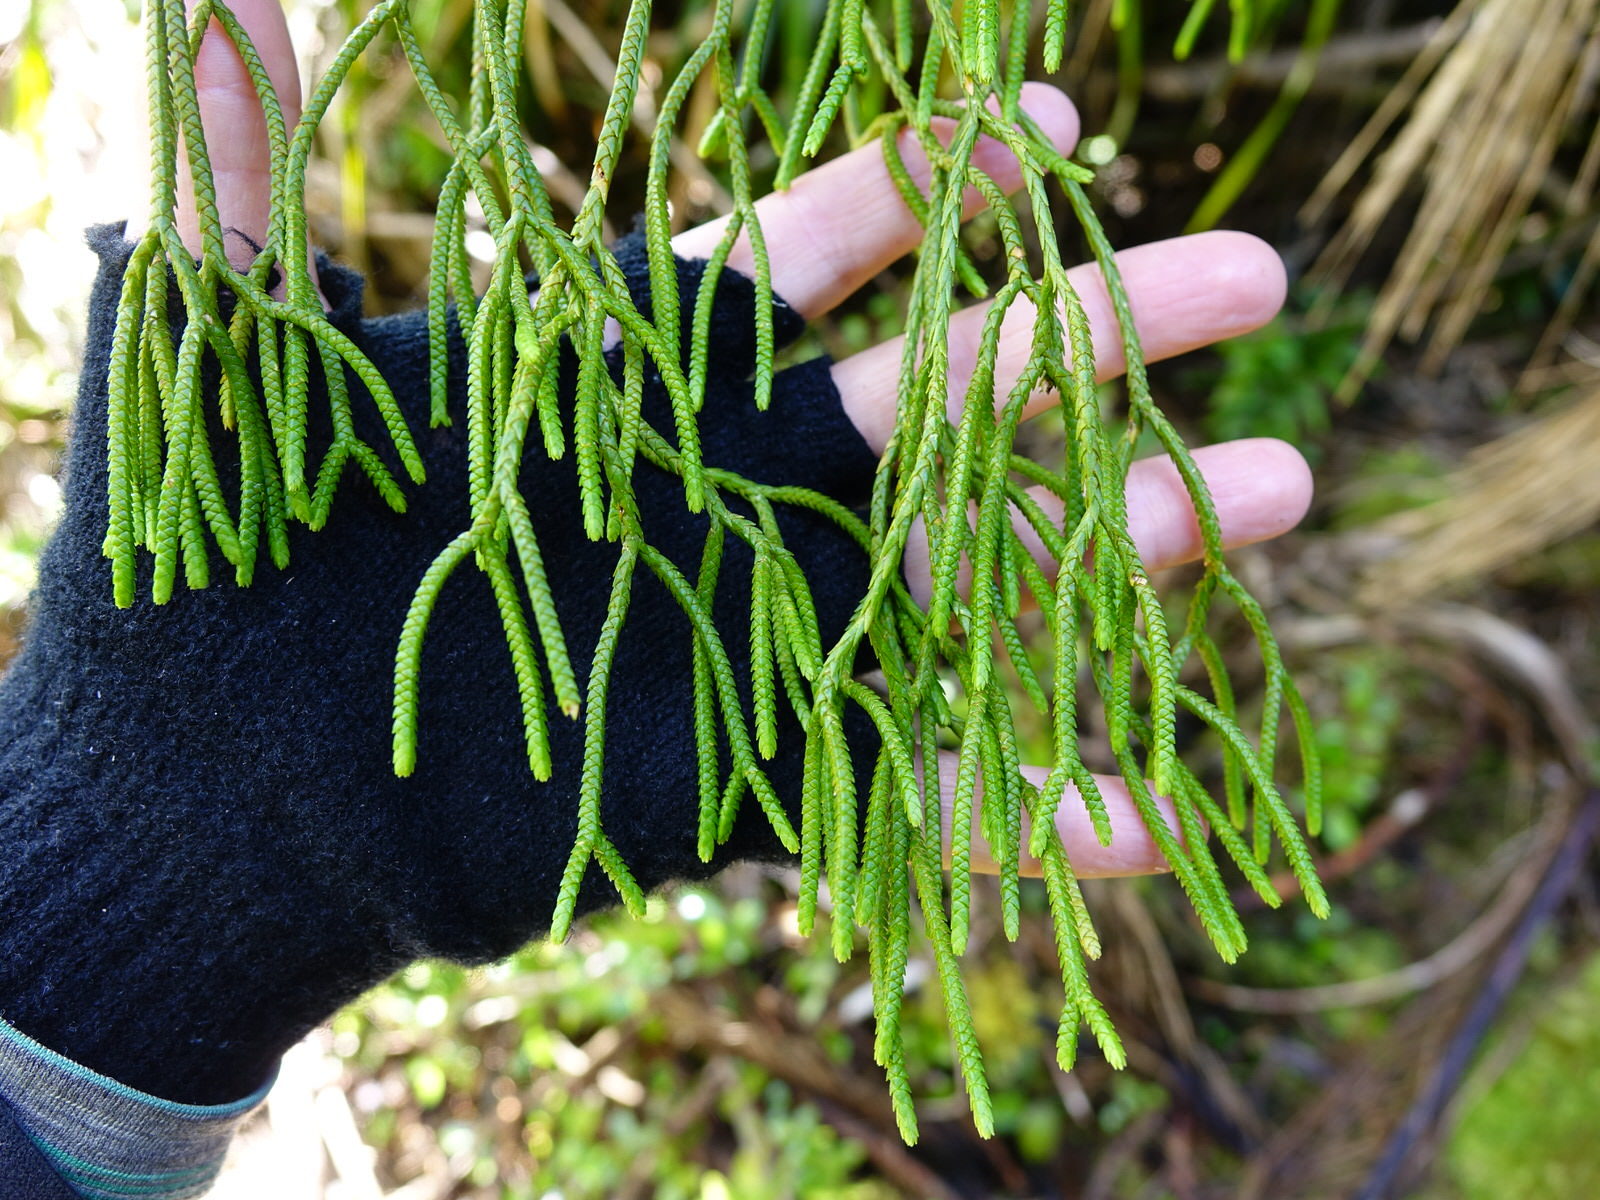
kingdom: Plantae
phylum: Tracheophyta
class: Lycopodiopsida
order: Lycopodiales
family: Lycopodiaceae
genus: Phlegmariurus
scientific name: Phlegmariurus varius
